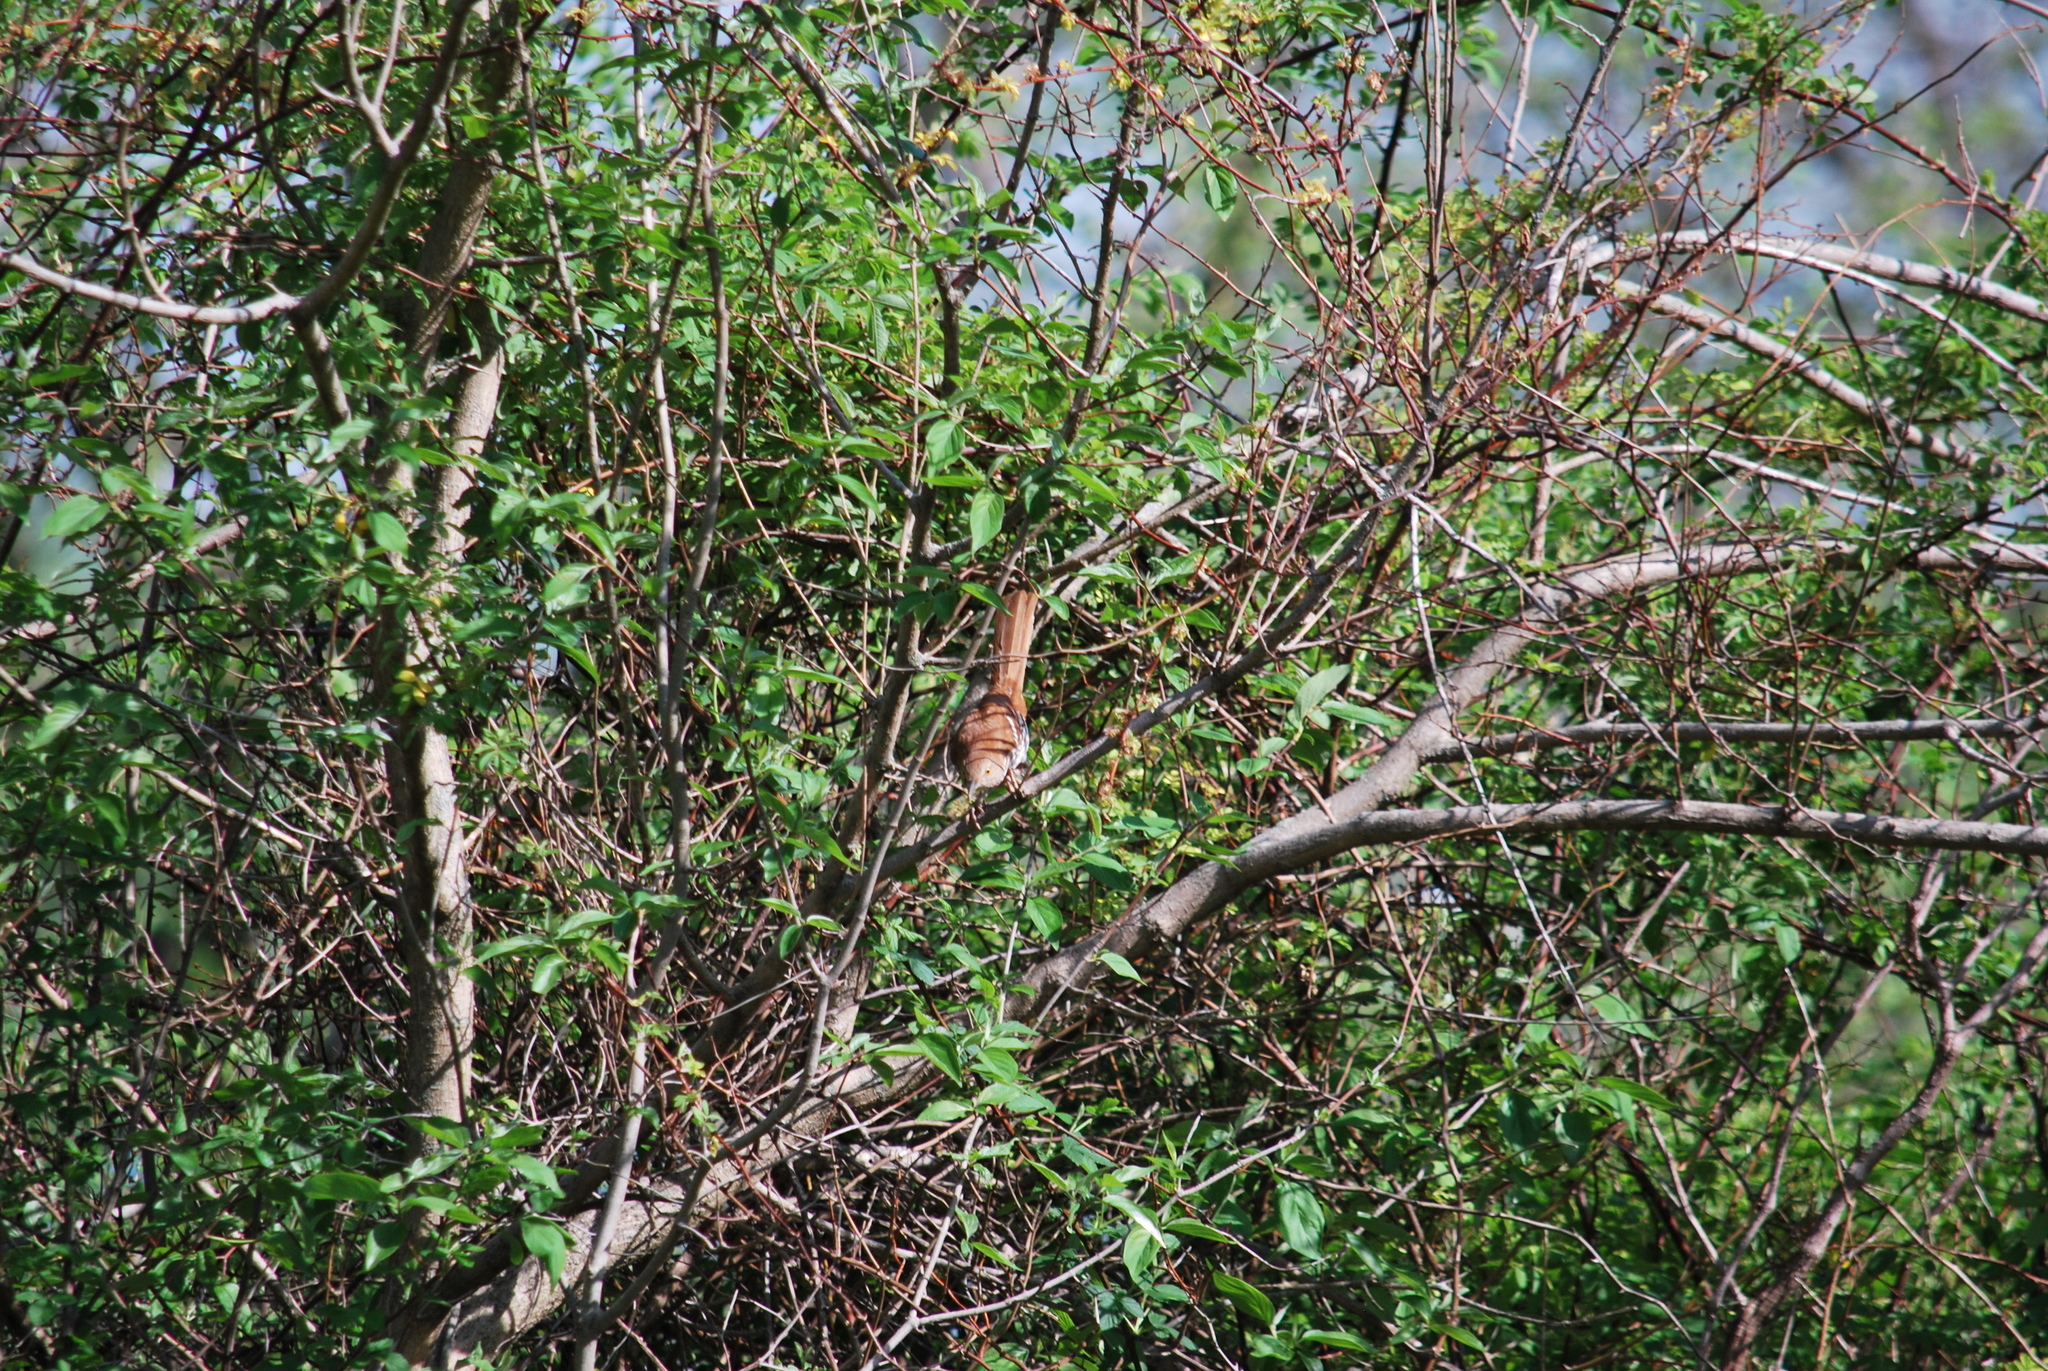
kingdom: Animalia
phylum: Chordata
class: Aves
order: Passeriformes
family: Mimidae
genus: Toxostoma
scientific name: Toxostoma rufum
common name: Brown thrasher
